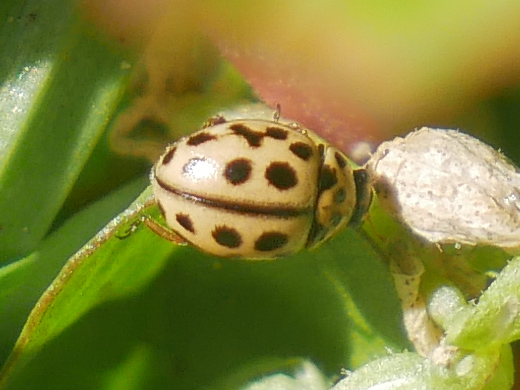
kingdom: Animalia
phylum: Arthropoda
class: Insecta
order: Coleoptera
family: Coccinellidae
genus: Tytthaspis
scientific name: Tytthaspis sedecimpunctata
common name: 16-spot ladybird
